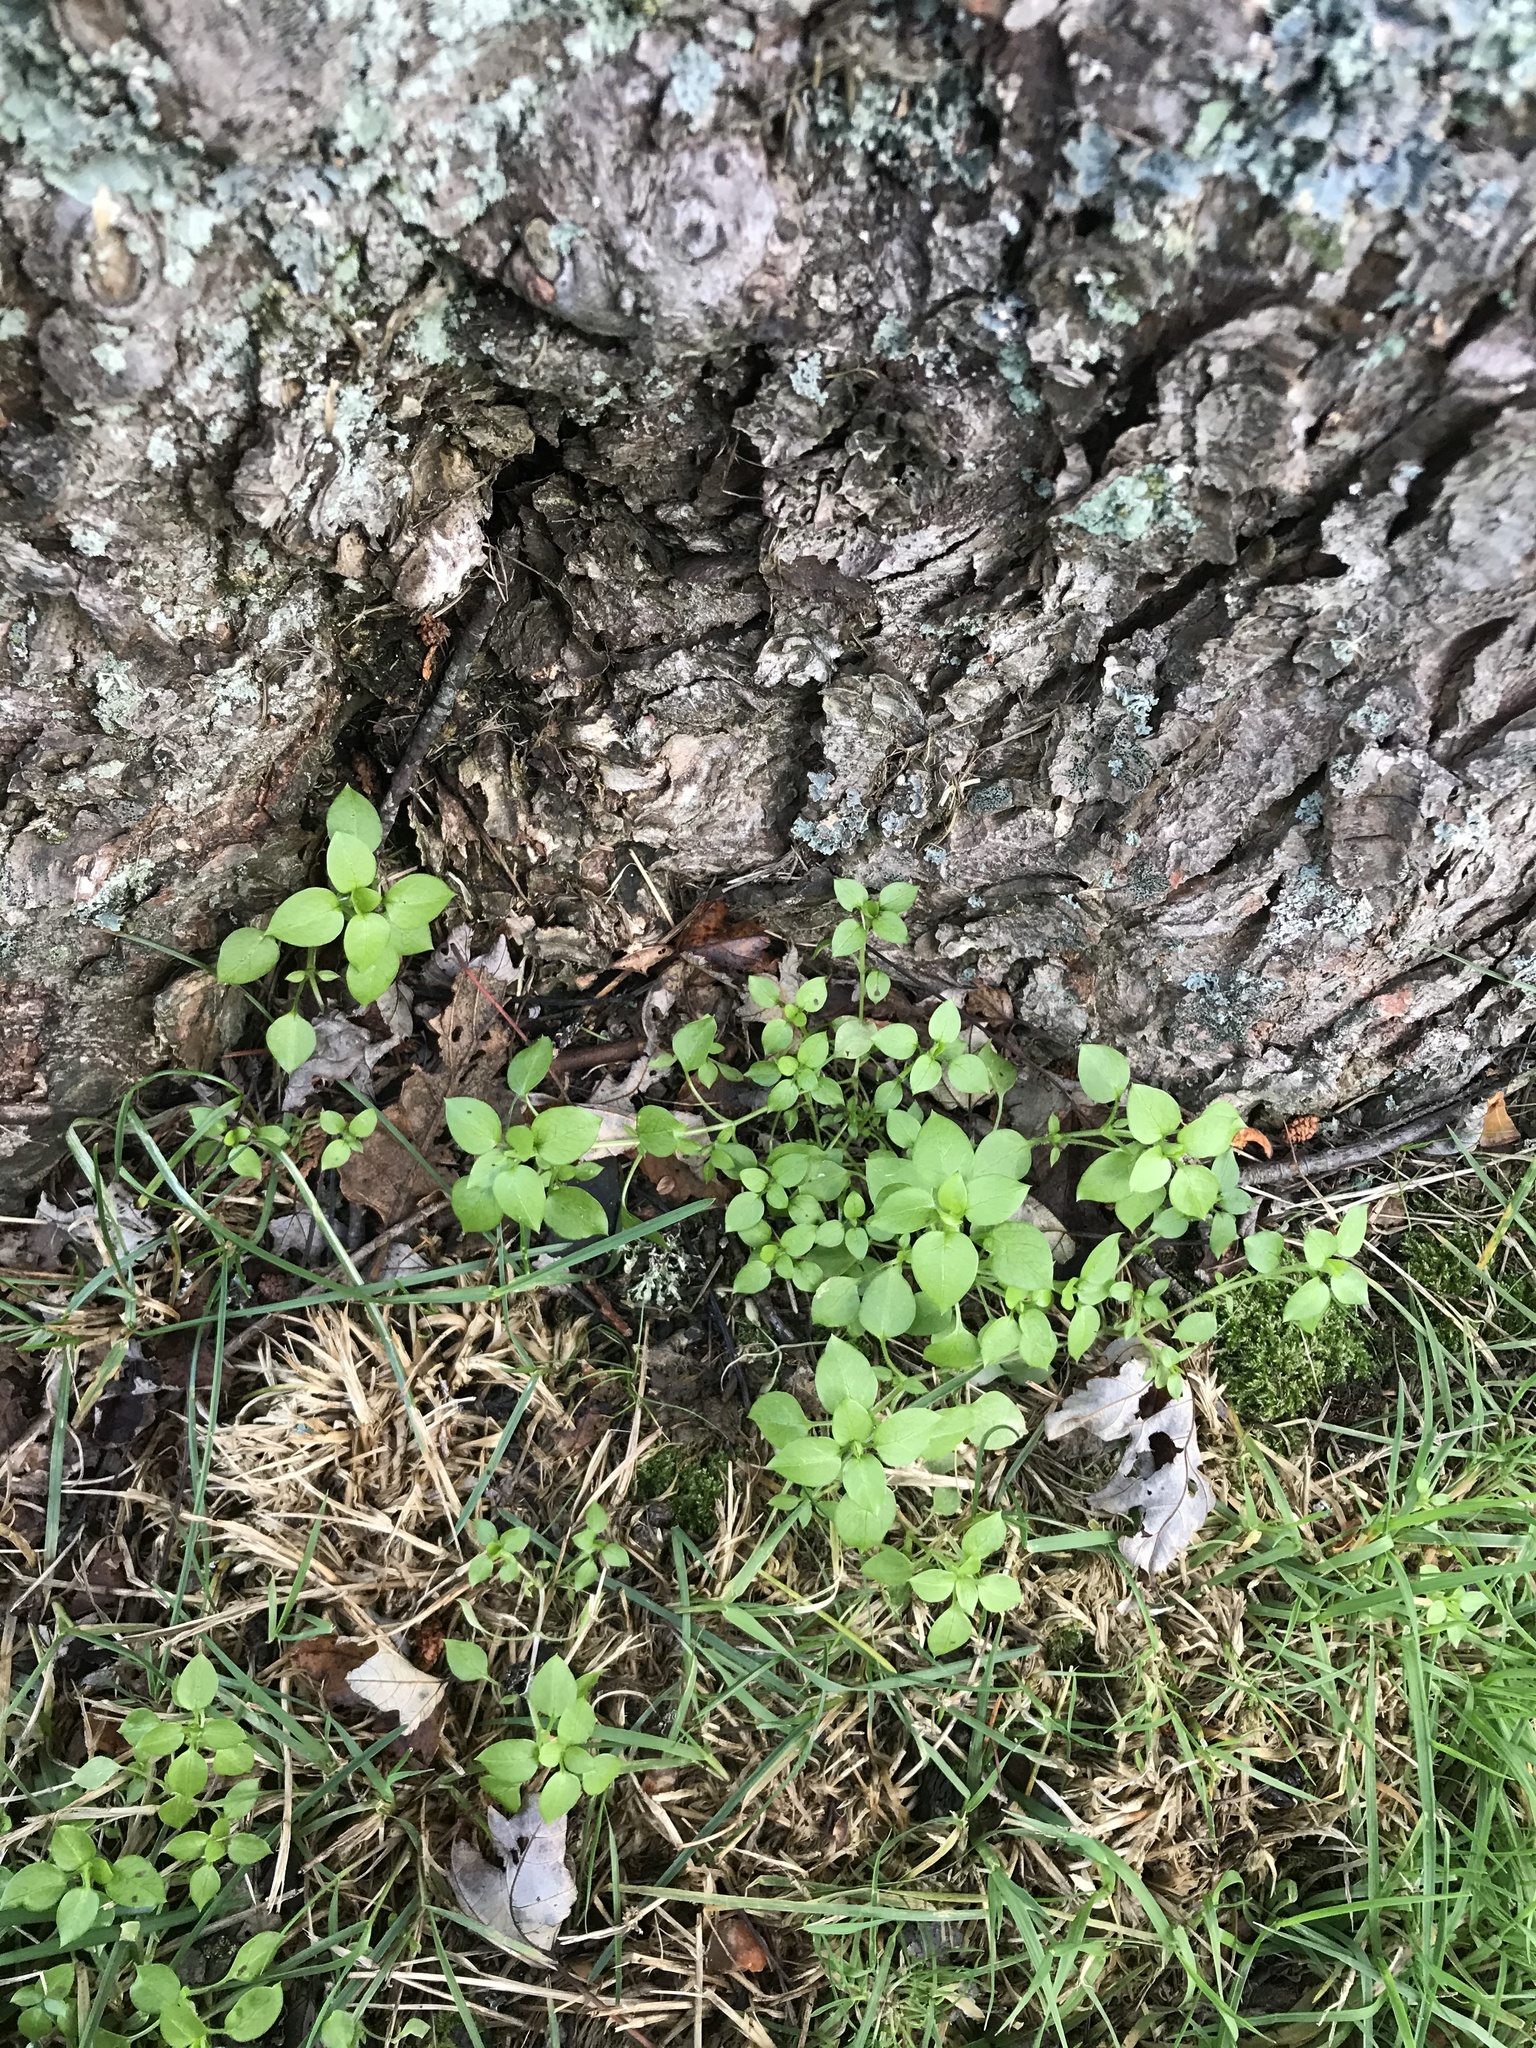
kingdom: Plantae
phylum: Tracheophyta
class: Magnoliopsida
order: Caryophyllales
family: Caryophyllaceae
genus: Stellaria
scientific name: Stellaria media
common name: Common chickweed
